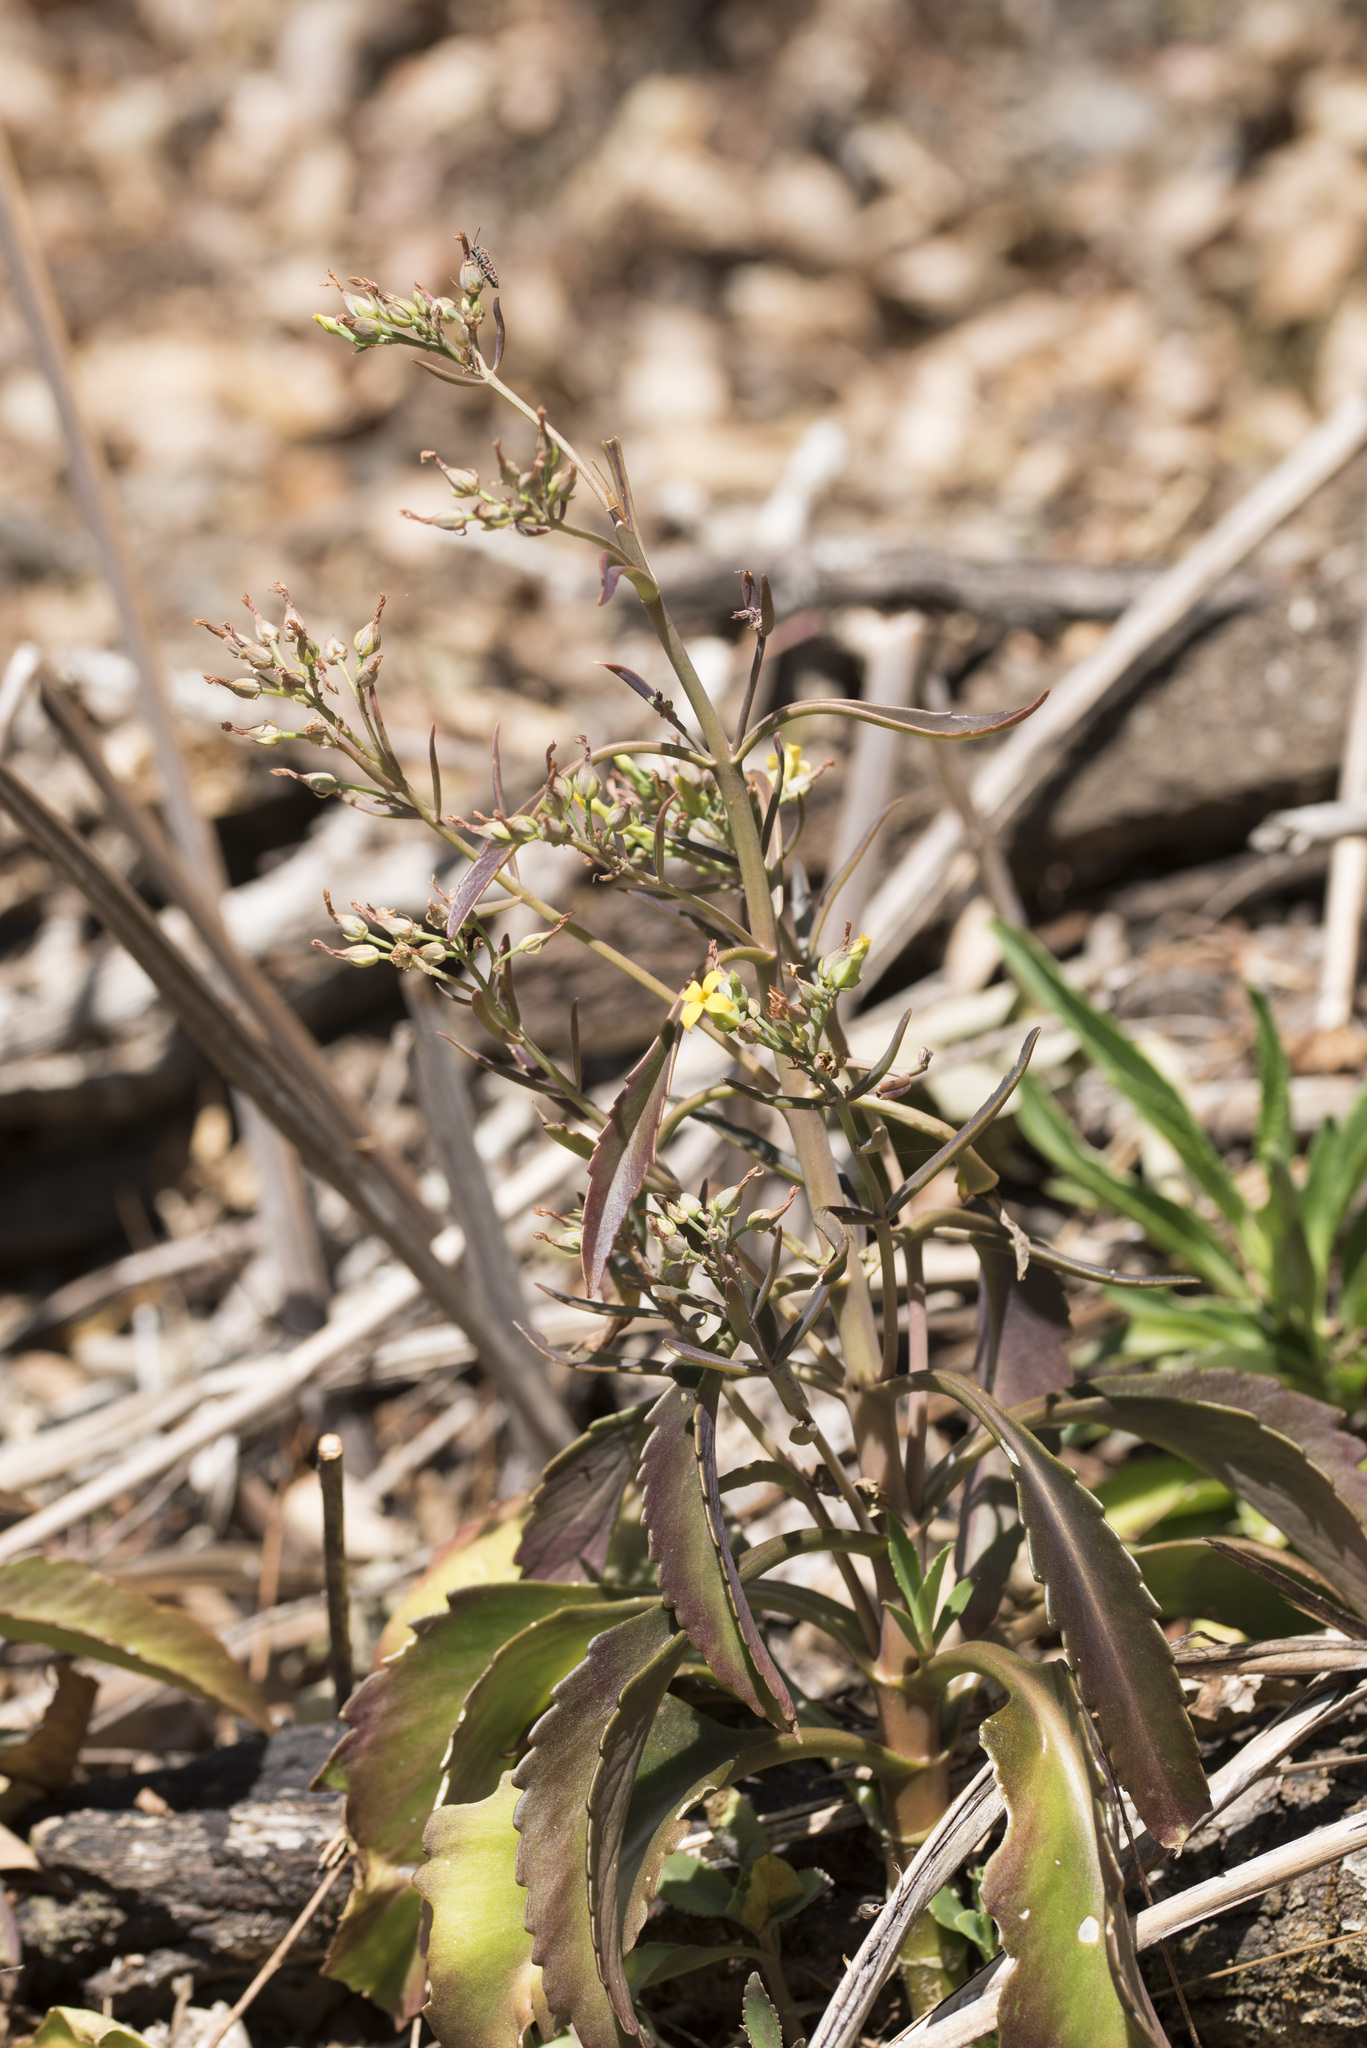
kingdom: Plantae
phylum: Tracheophyta
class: Magnoliopsida
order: Saxifragales
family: Crassulaceae
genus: Kalanchoe
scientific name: Kalanchoe integra
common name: Neverdie
